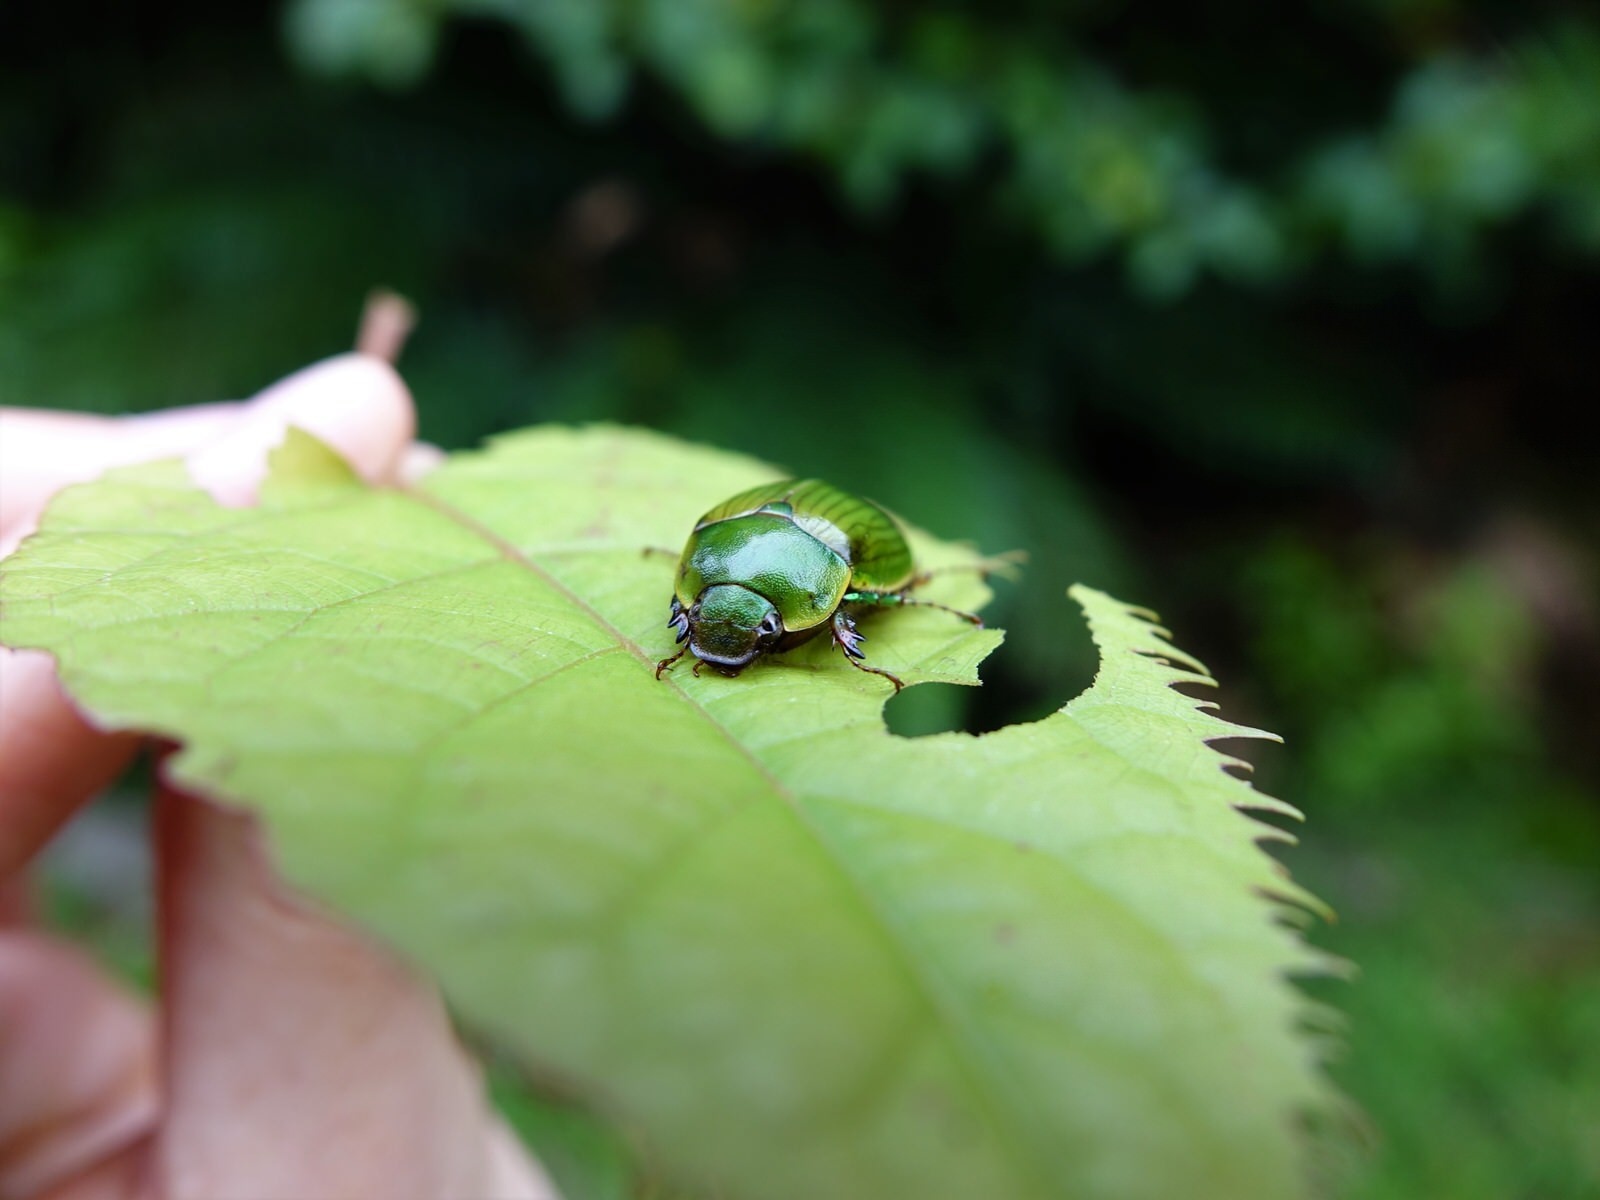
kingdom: Animalia
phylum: Arthropoda
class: Insecta
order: Coleoptera
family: Scarabaeidae
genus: Stethaspis
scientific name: Stethaspis longicornis
